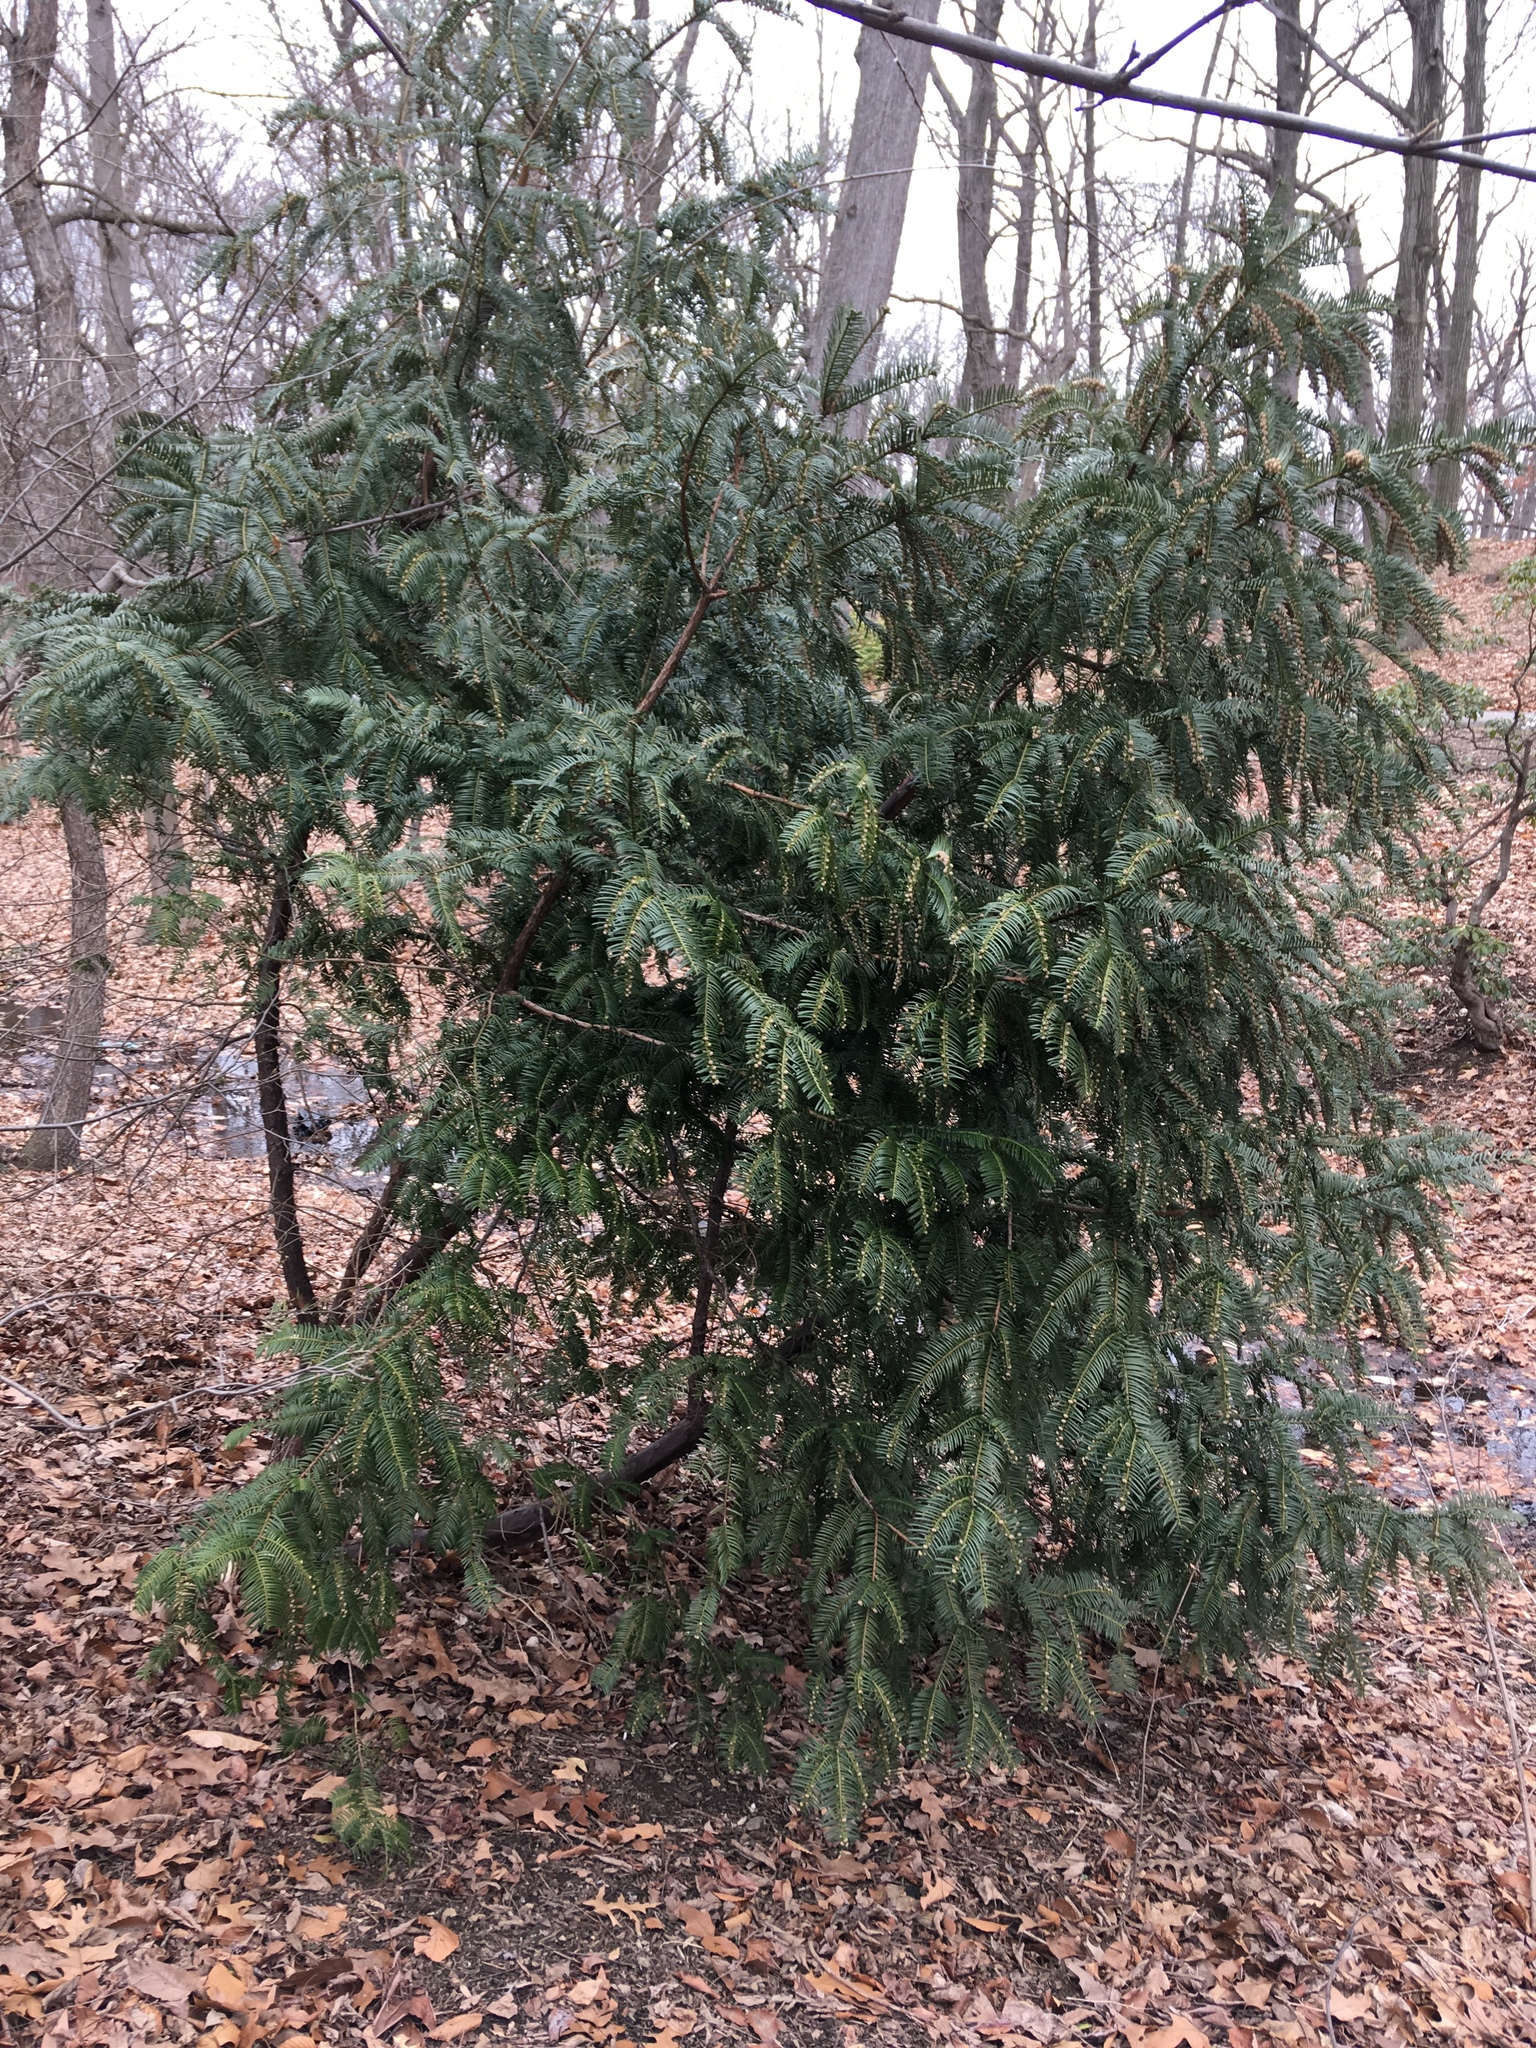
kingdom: Plantae
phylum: Tracheophyta
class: Pinopsida
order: Pinales
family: Cephalotaxaceae
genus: Cephalotaxus
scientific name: Cephalotaxus harringtonia
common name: Japanese plum-yew
